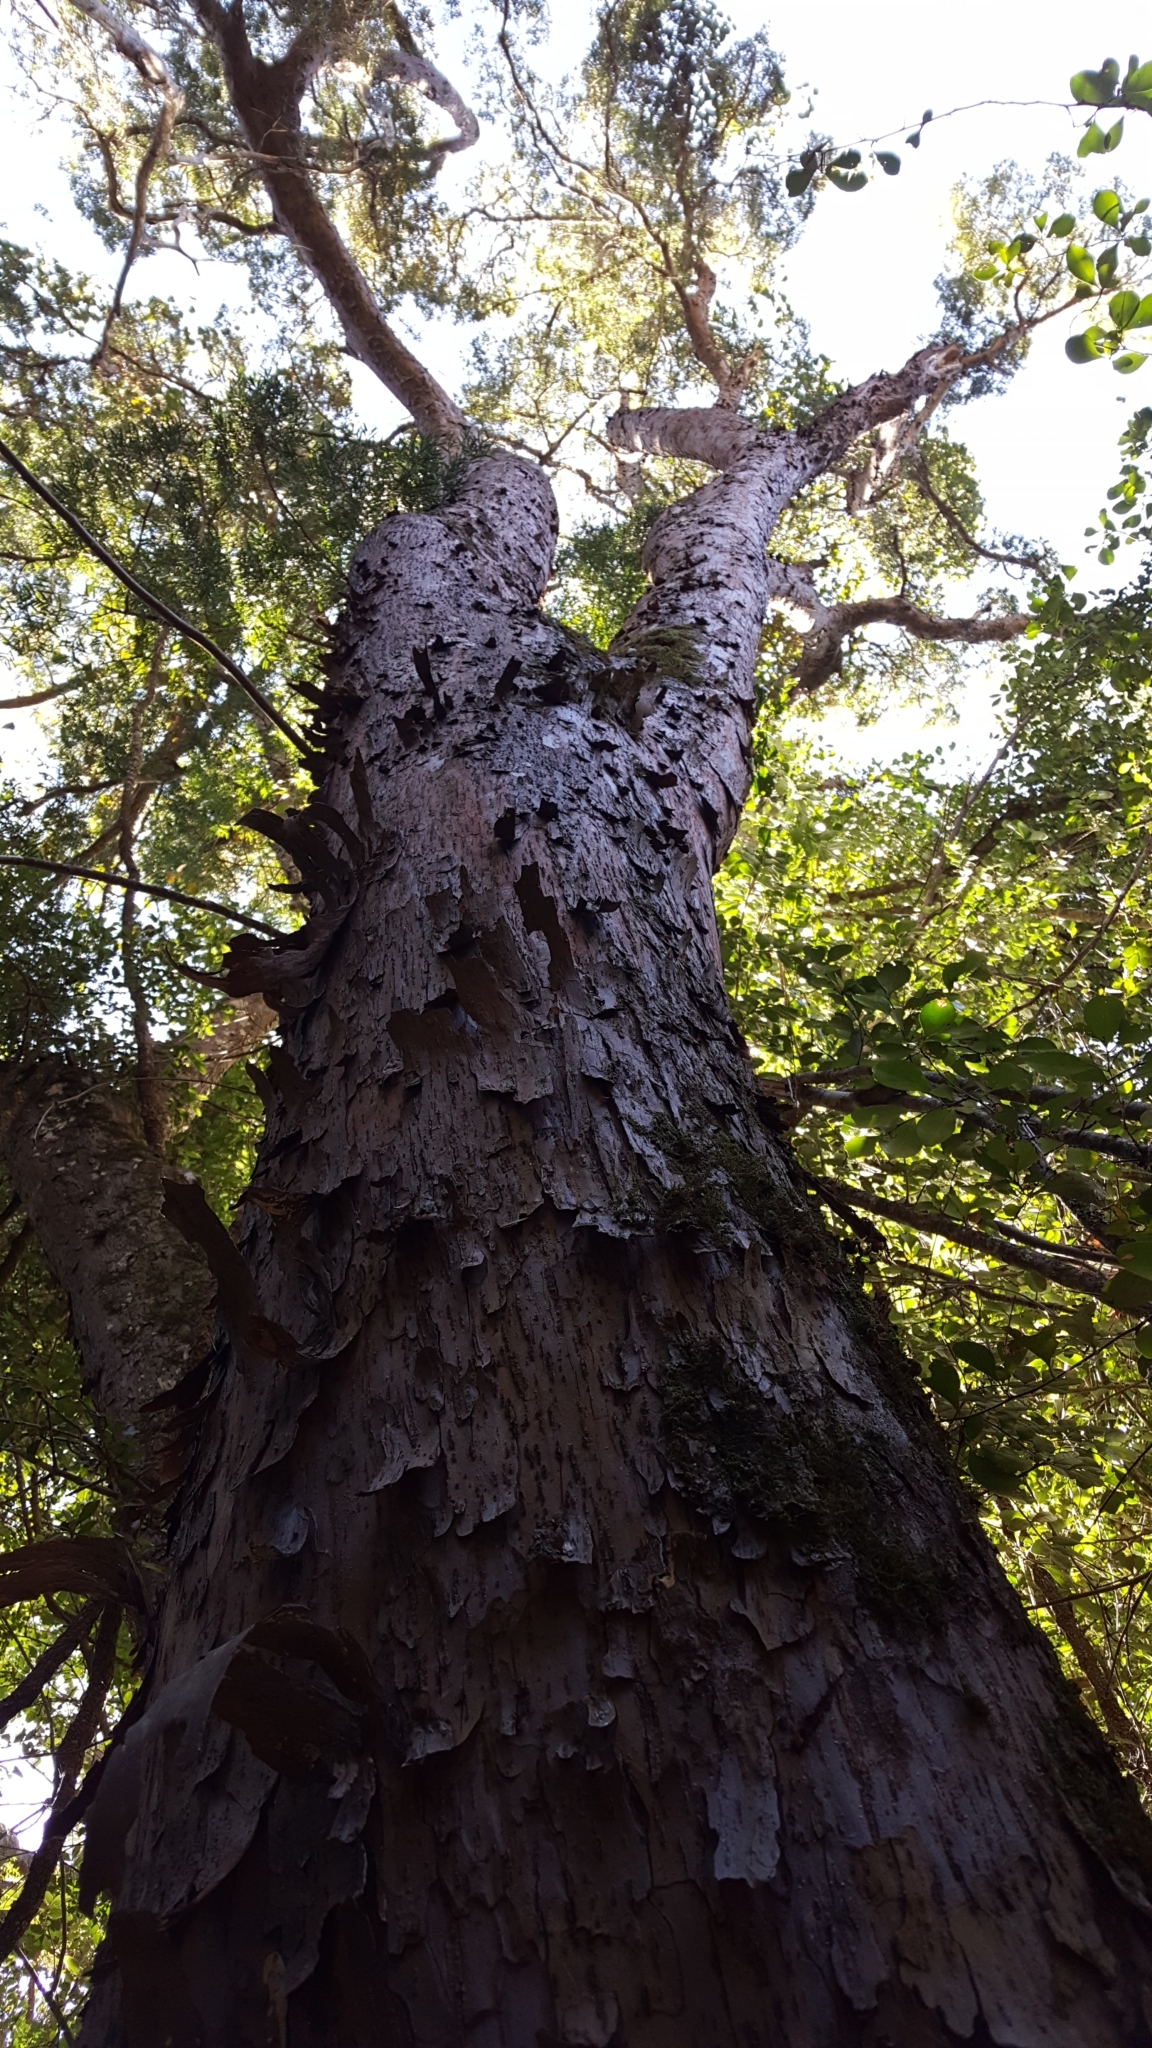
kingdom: Plantae
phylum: Tracheophyta
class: Pinopsida
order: Pinales
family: Podocarpaceae
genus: Afrocarpus
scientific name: Afrocarpus falcatus
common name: Bastard yellowwood
